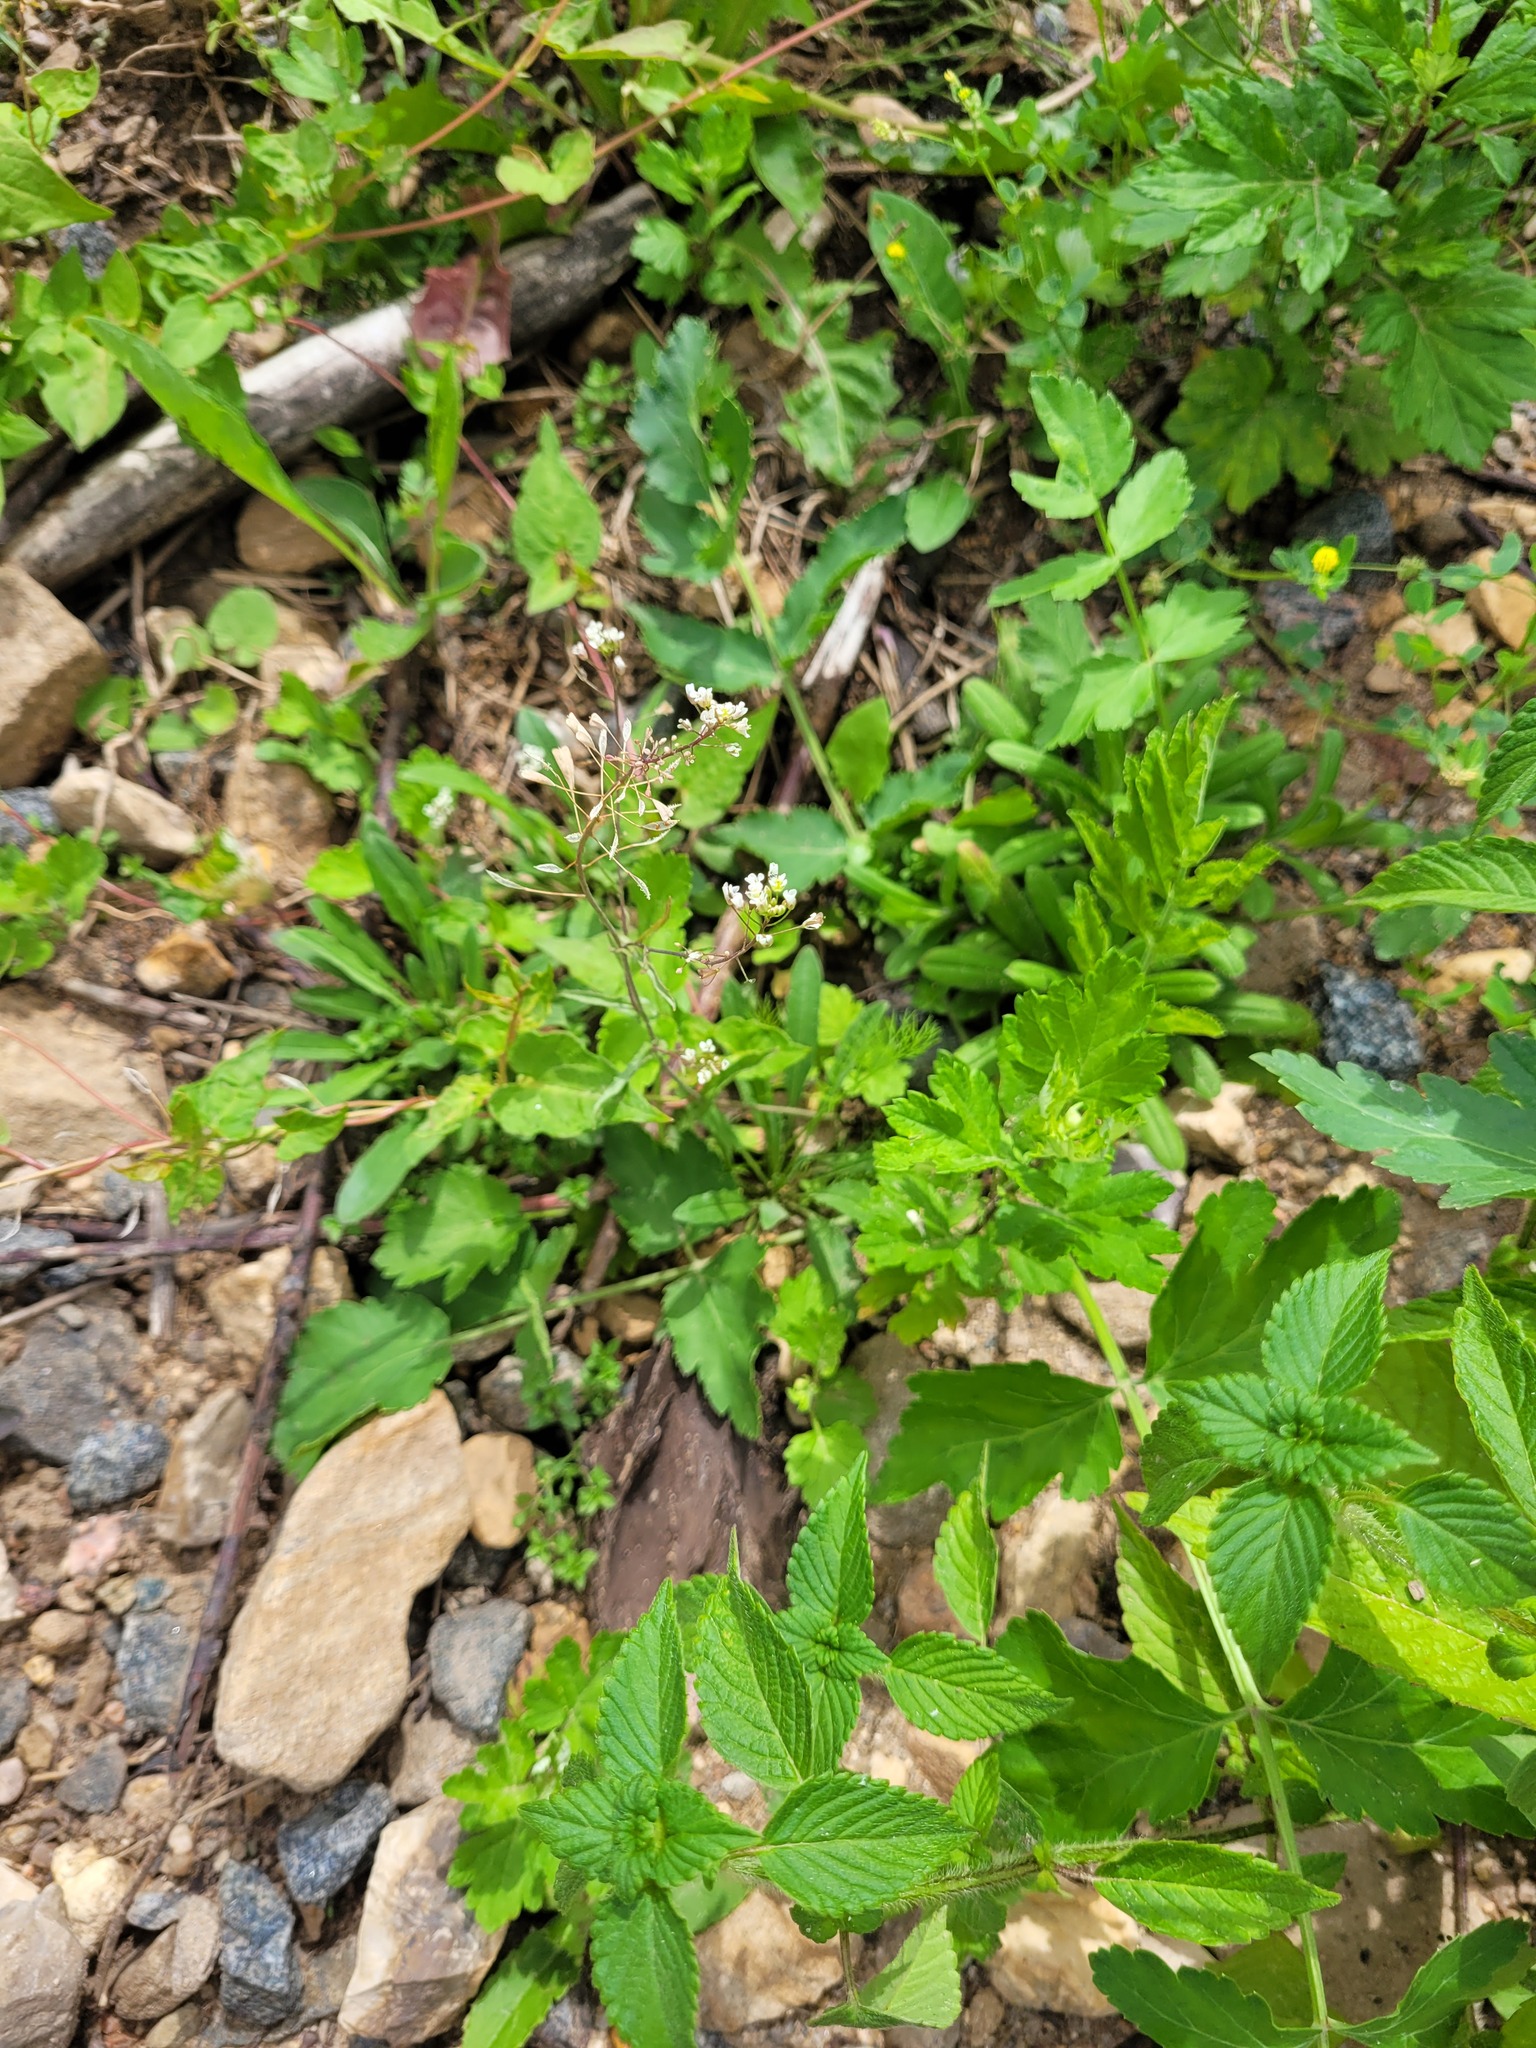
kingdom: Plantae
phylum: Tracheophyta
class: Magnoliopsida
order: Brassicales
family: Brassicaceae
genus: Capsella
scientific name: Capsella bursa-pastoris
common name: Shepherd's purse
